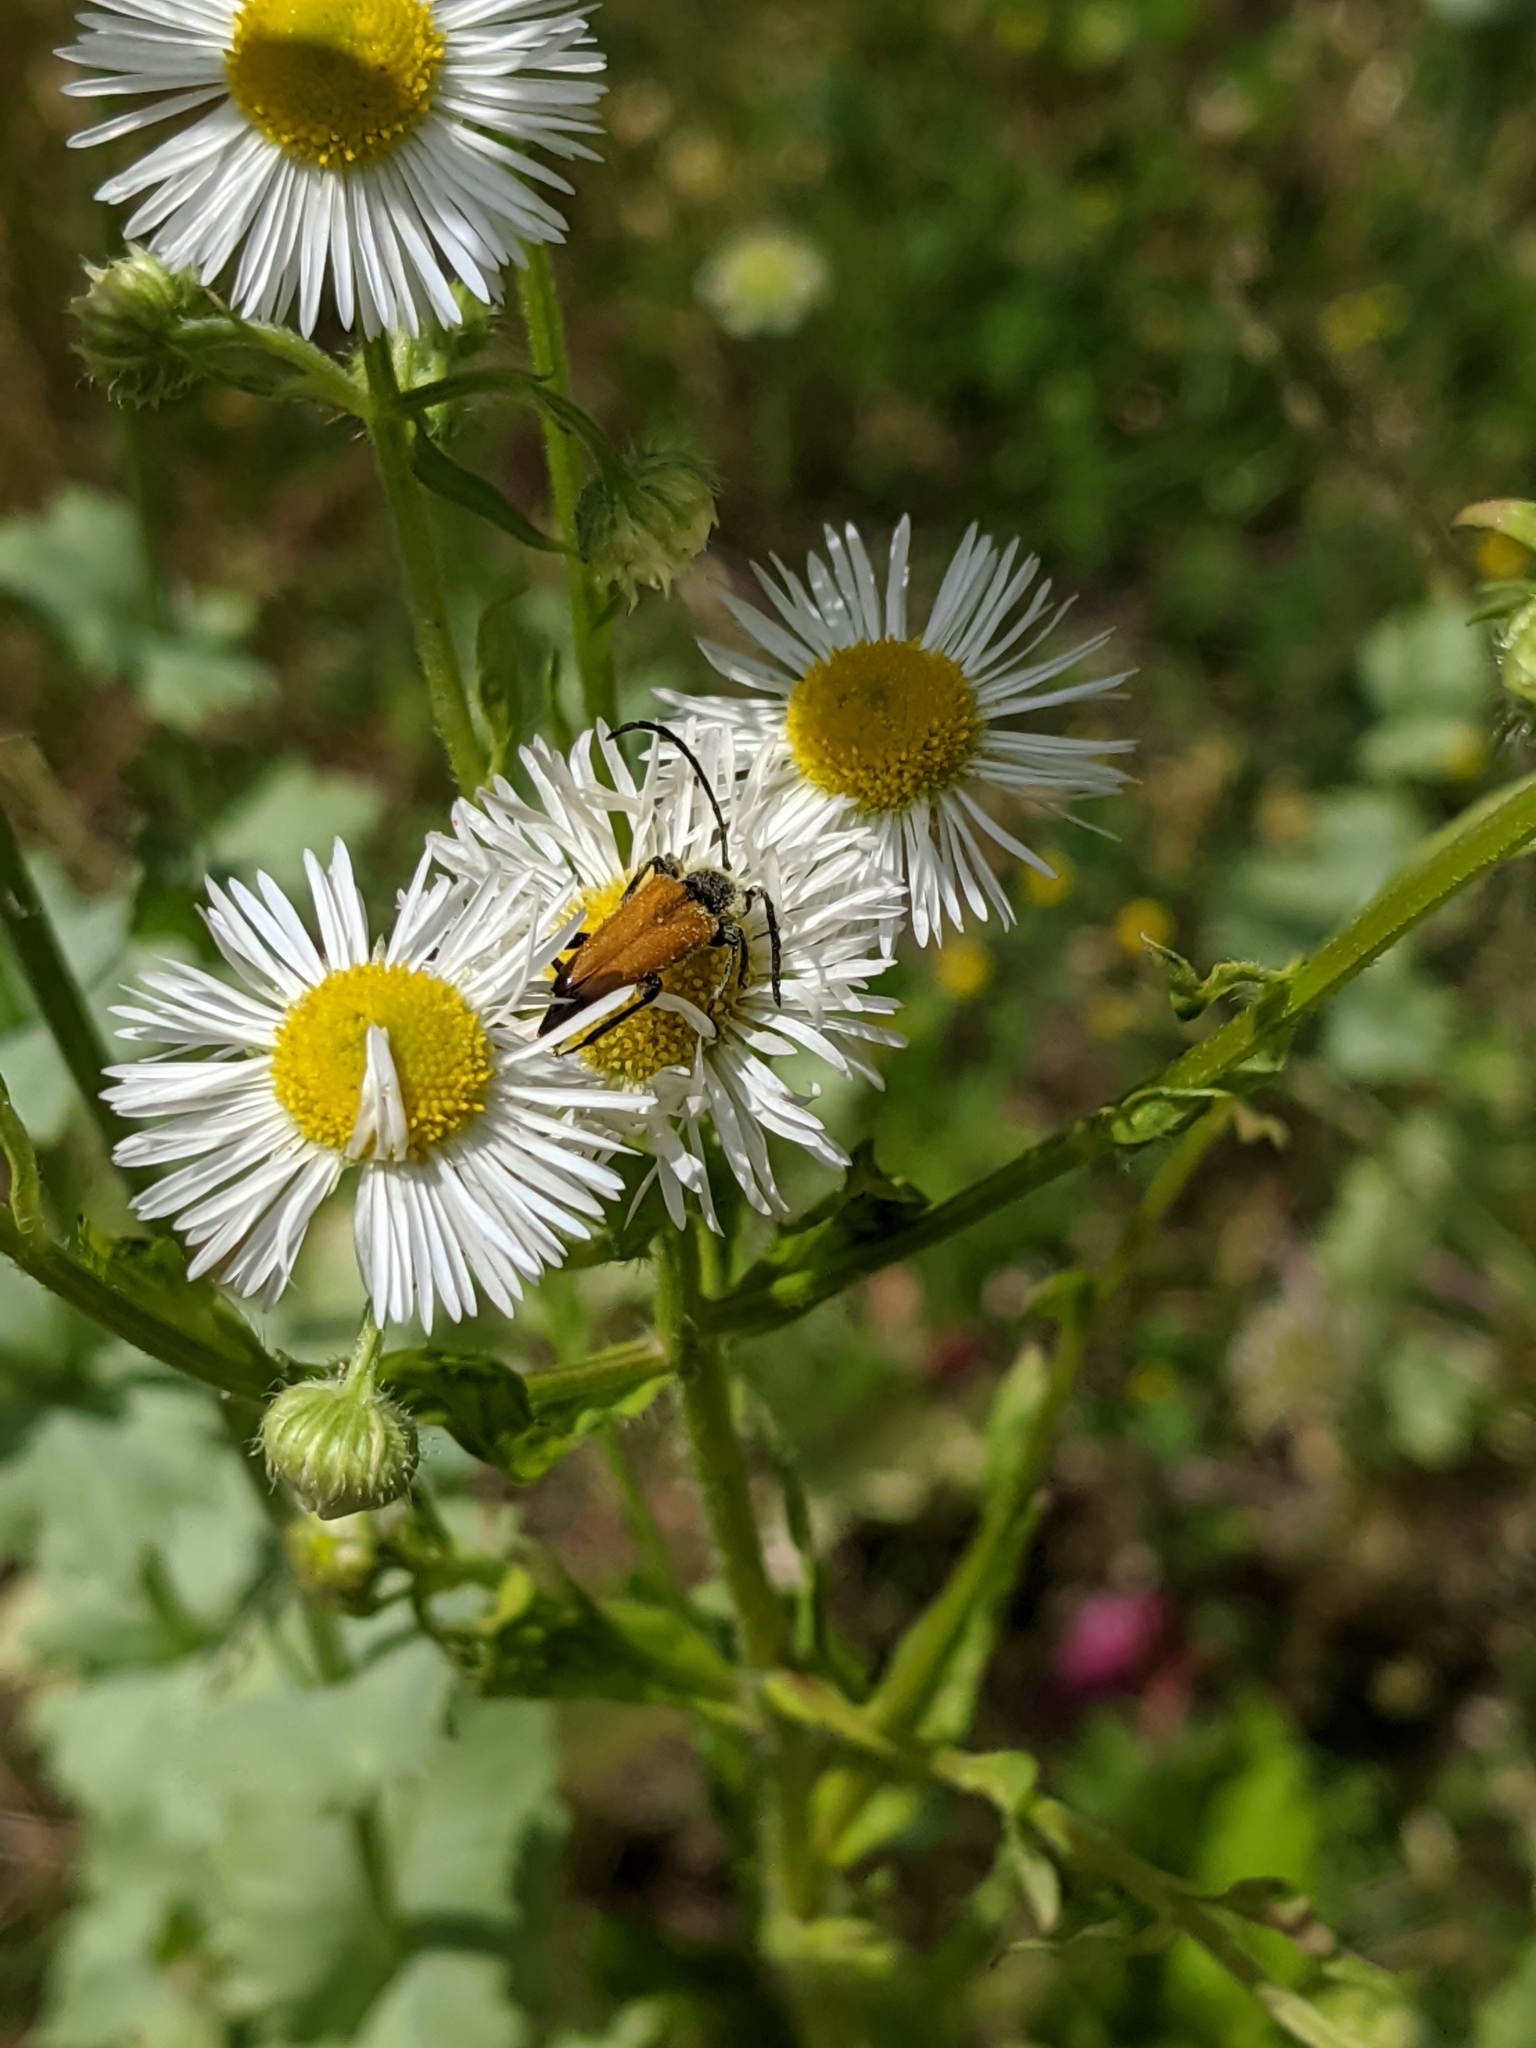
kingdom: Animalia
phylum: Arthropoda
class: Insecta
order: Coleoptera
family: Cerambycidae
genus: Paracorymbia
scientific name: Paracorymbia fulva
